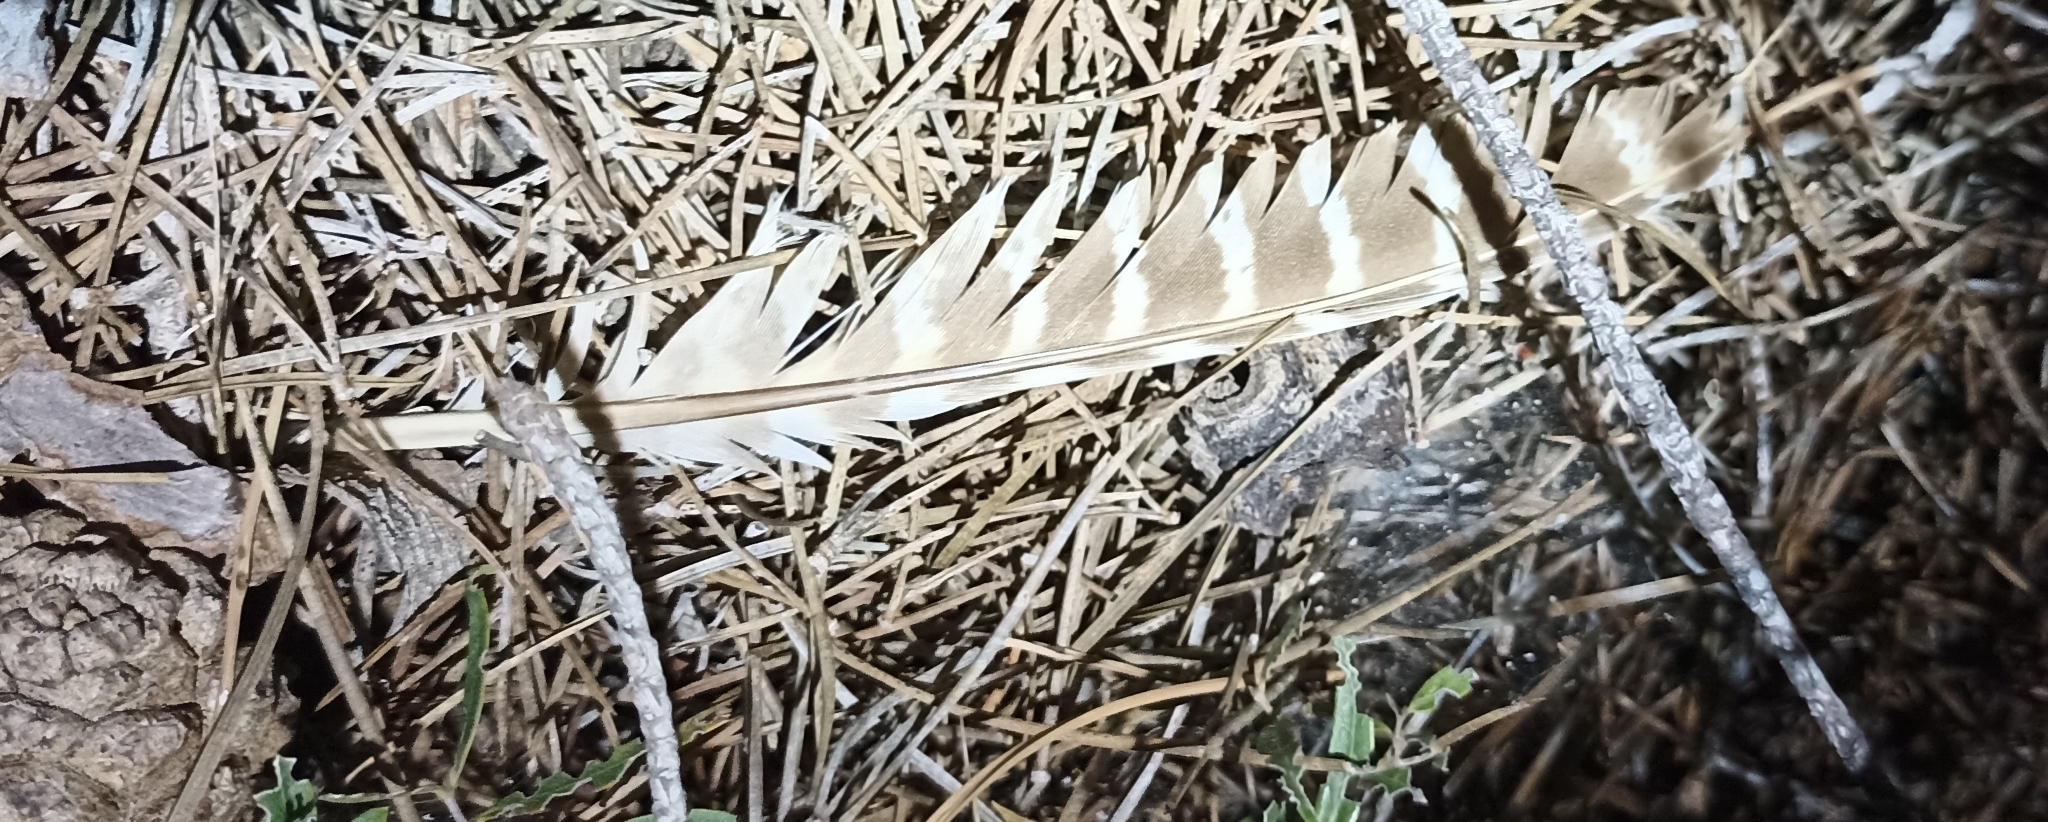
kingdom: Animalia
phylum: Chordata
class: Aves
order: Galliformes
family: Phasianidae
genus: Phasianus
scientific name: Phasianus colchicus
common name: Common pheasant
